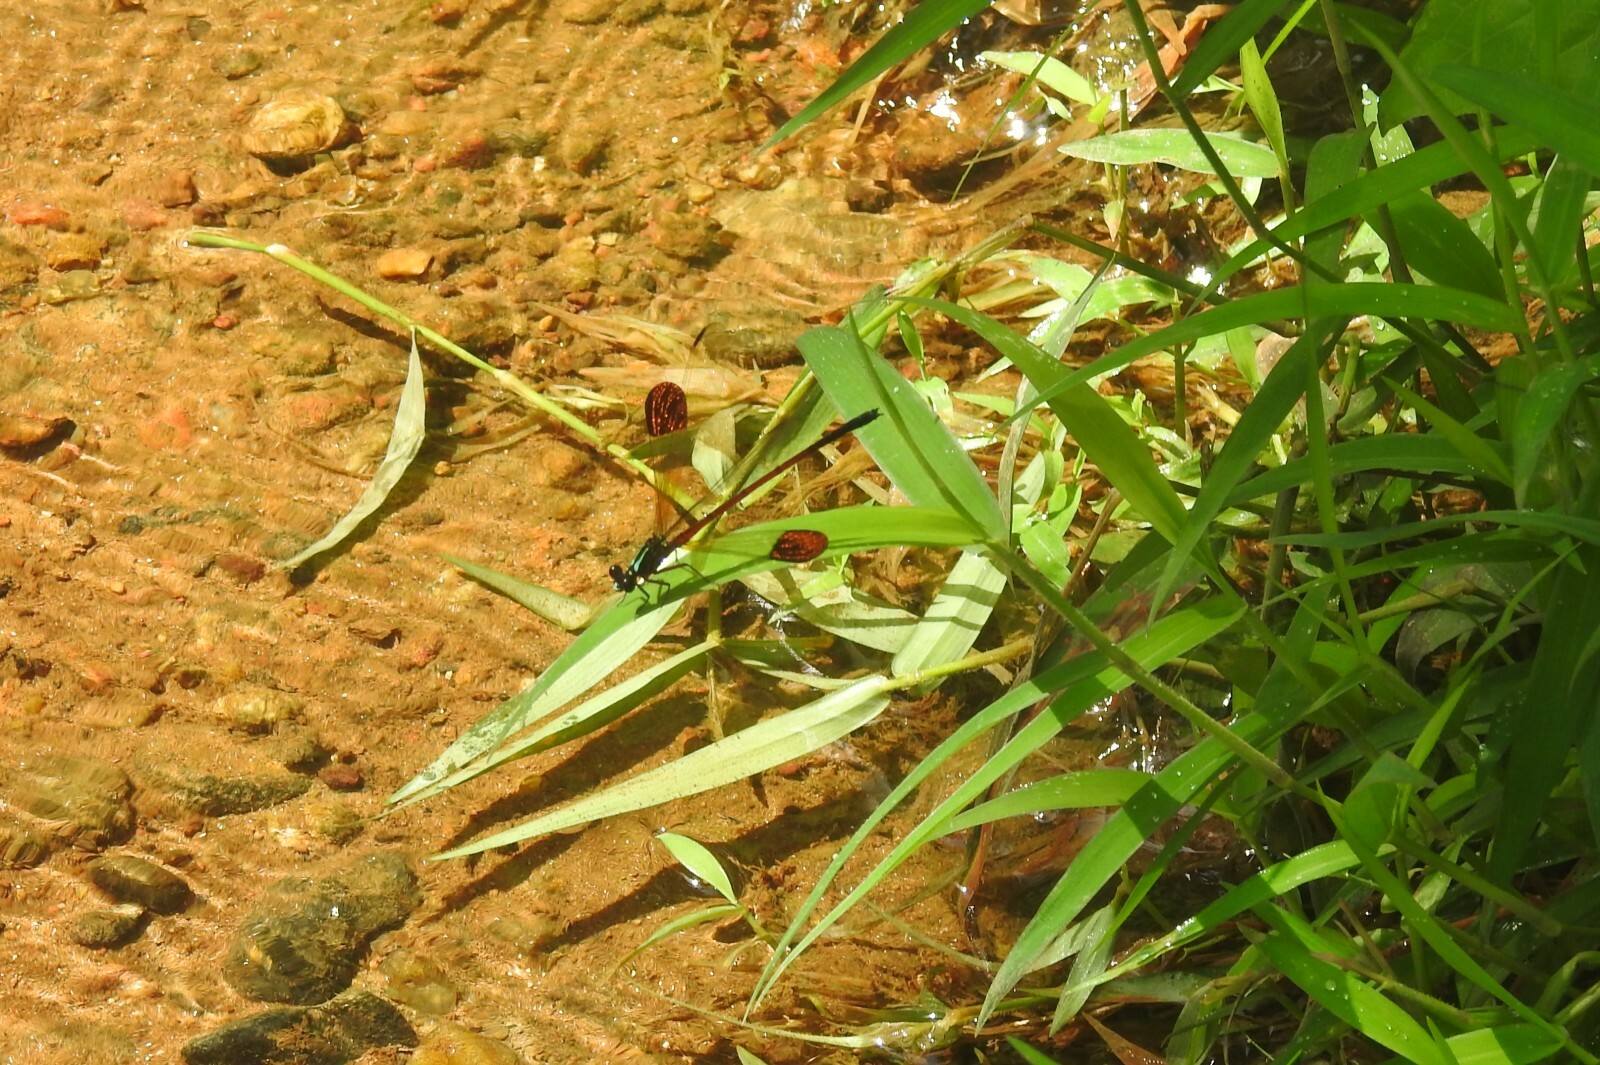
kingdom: Animalia
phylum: Arthropoda
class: Insecta
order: Odonata
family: Euphaeidae
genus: Euphaea
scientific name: Euphaea fraseri
